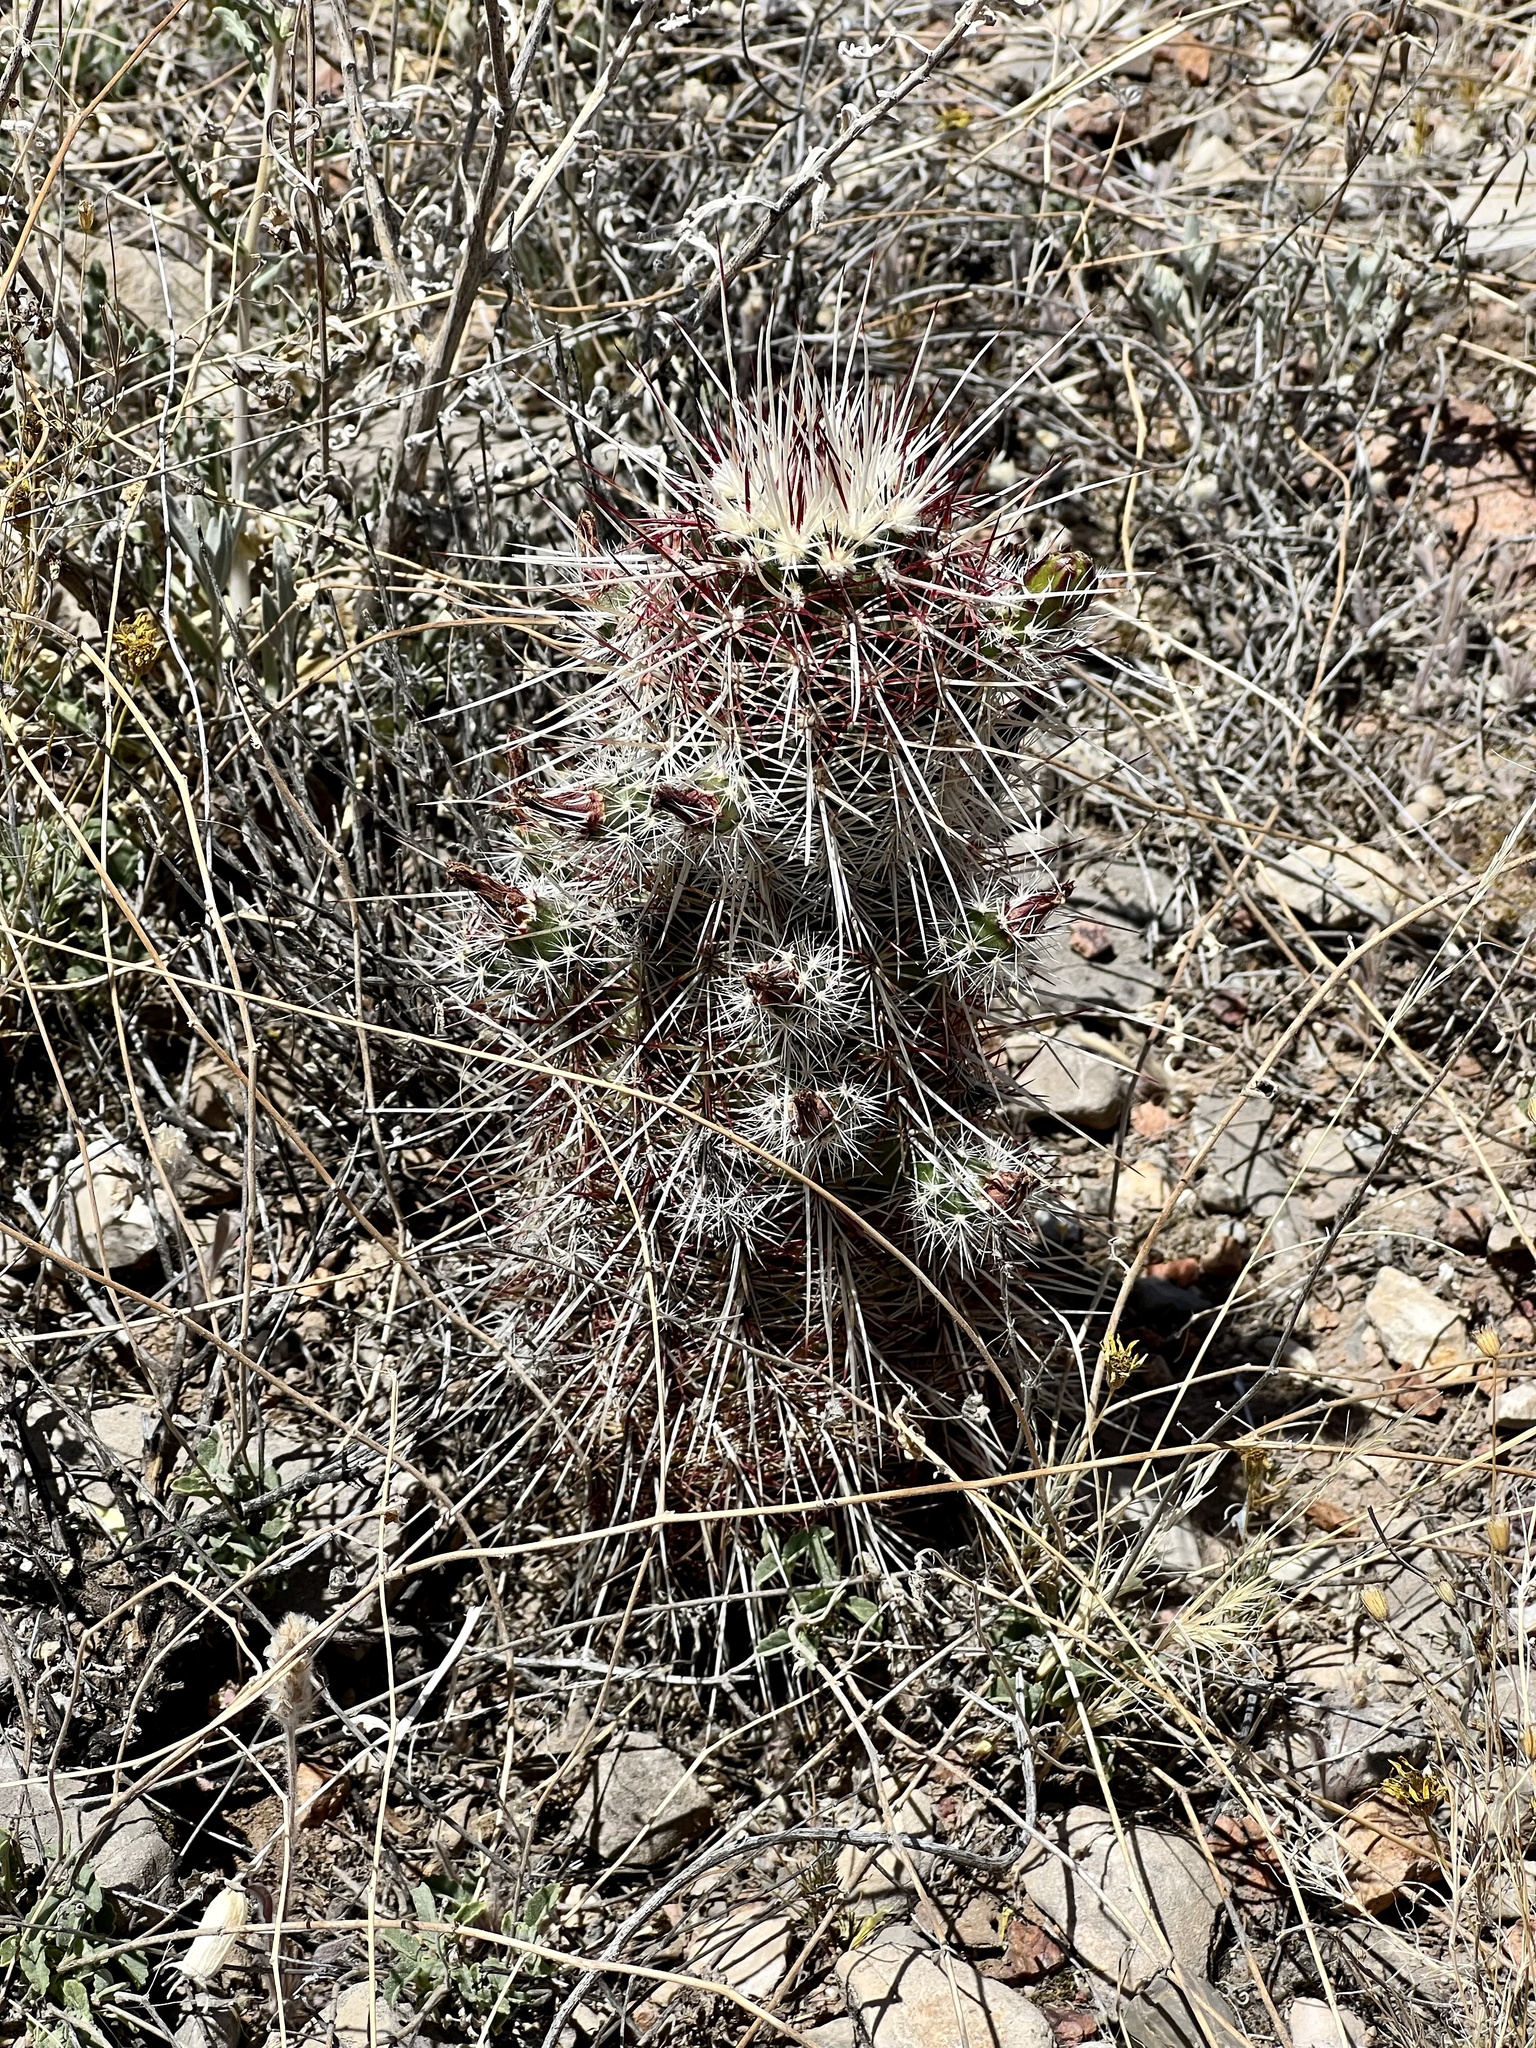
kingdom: Plantae
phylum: Tracheophyta
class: Magnoliopsida
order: Caryophyllales
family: Cactaceae
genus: Echinocereus
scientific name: Echinocereus viridiflorus
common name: Nylon hedgehog cactus
